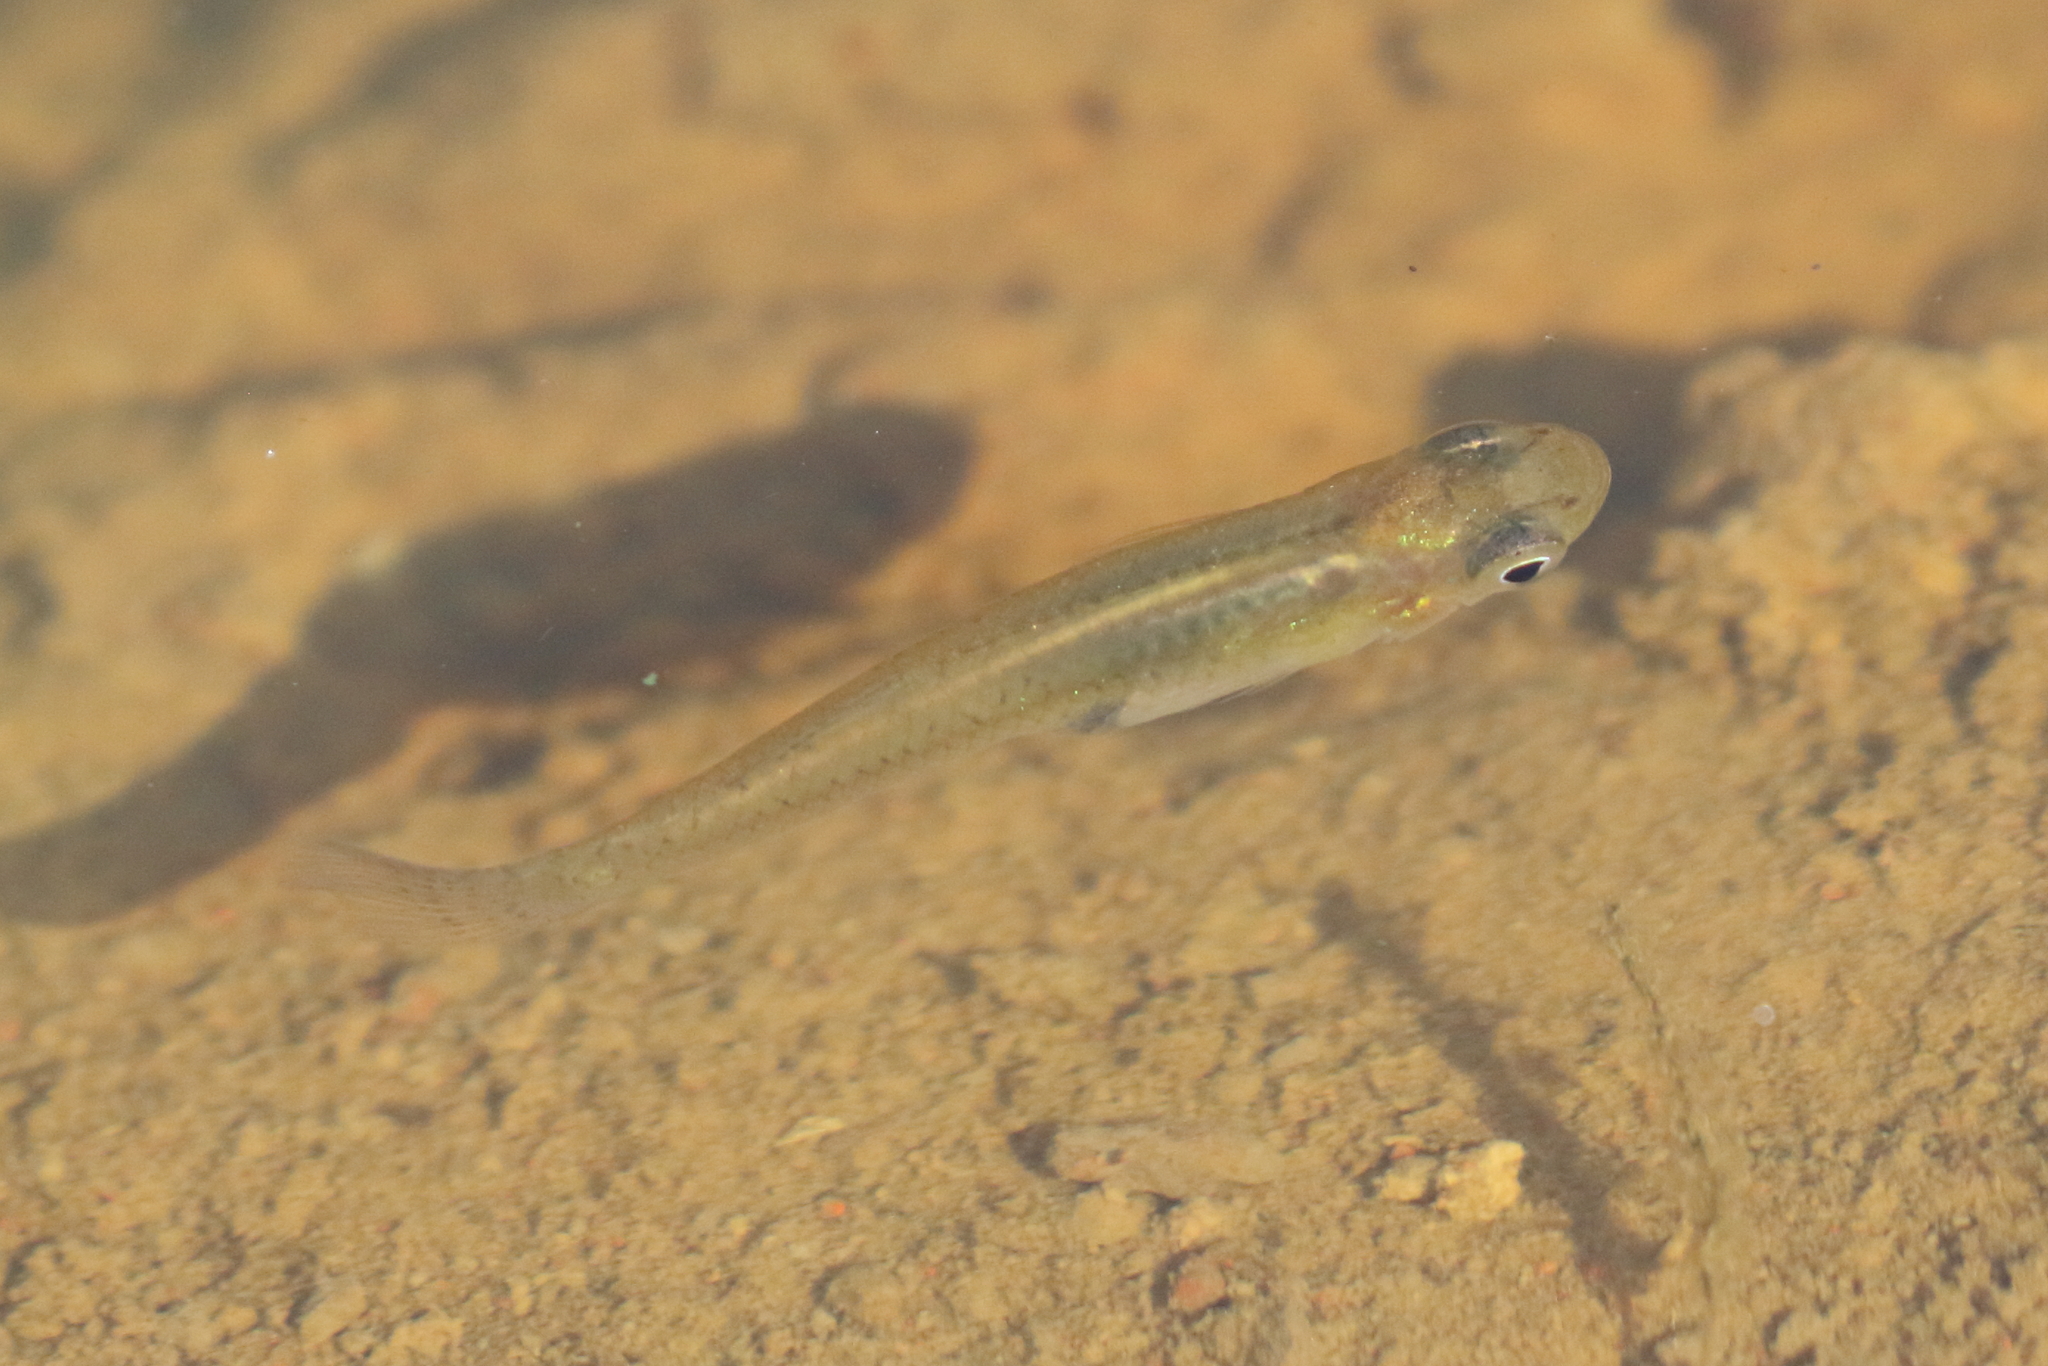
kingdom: Animalia
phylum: Chordata
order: Cyprinodontiformes
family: Poeciliidae
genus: Gambusia
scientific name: Gambusia holbrooki
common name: Eastern mosquitofish
